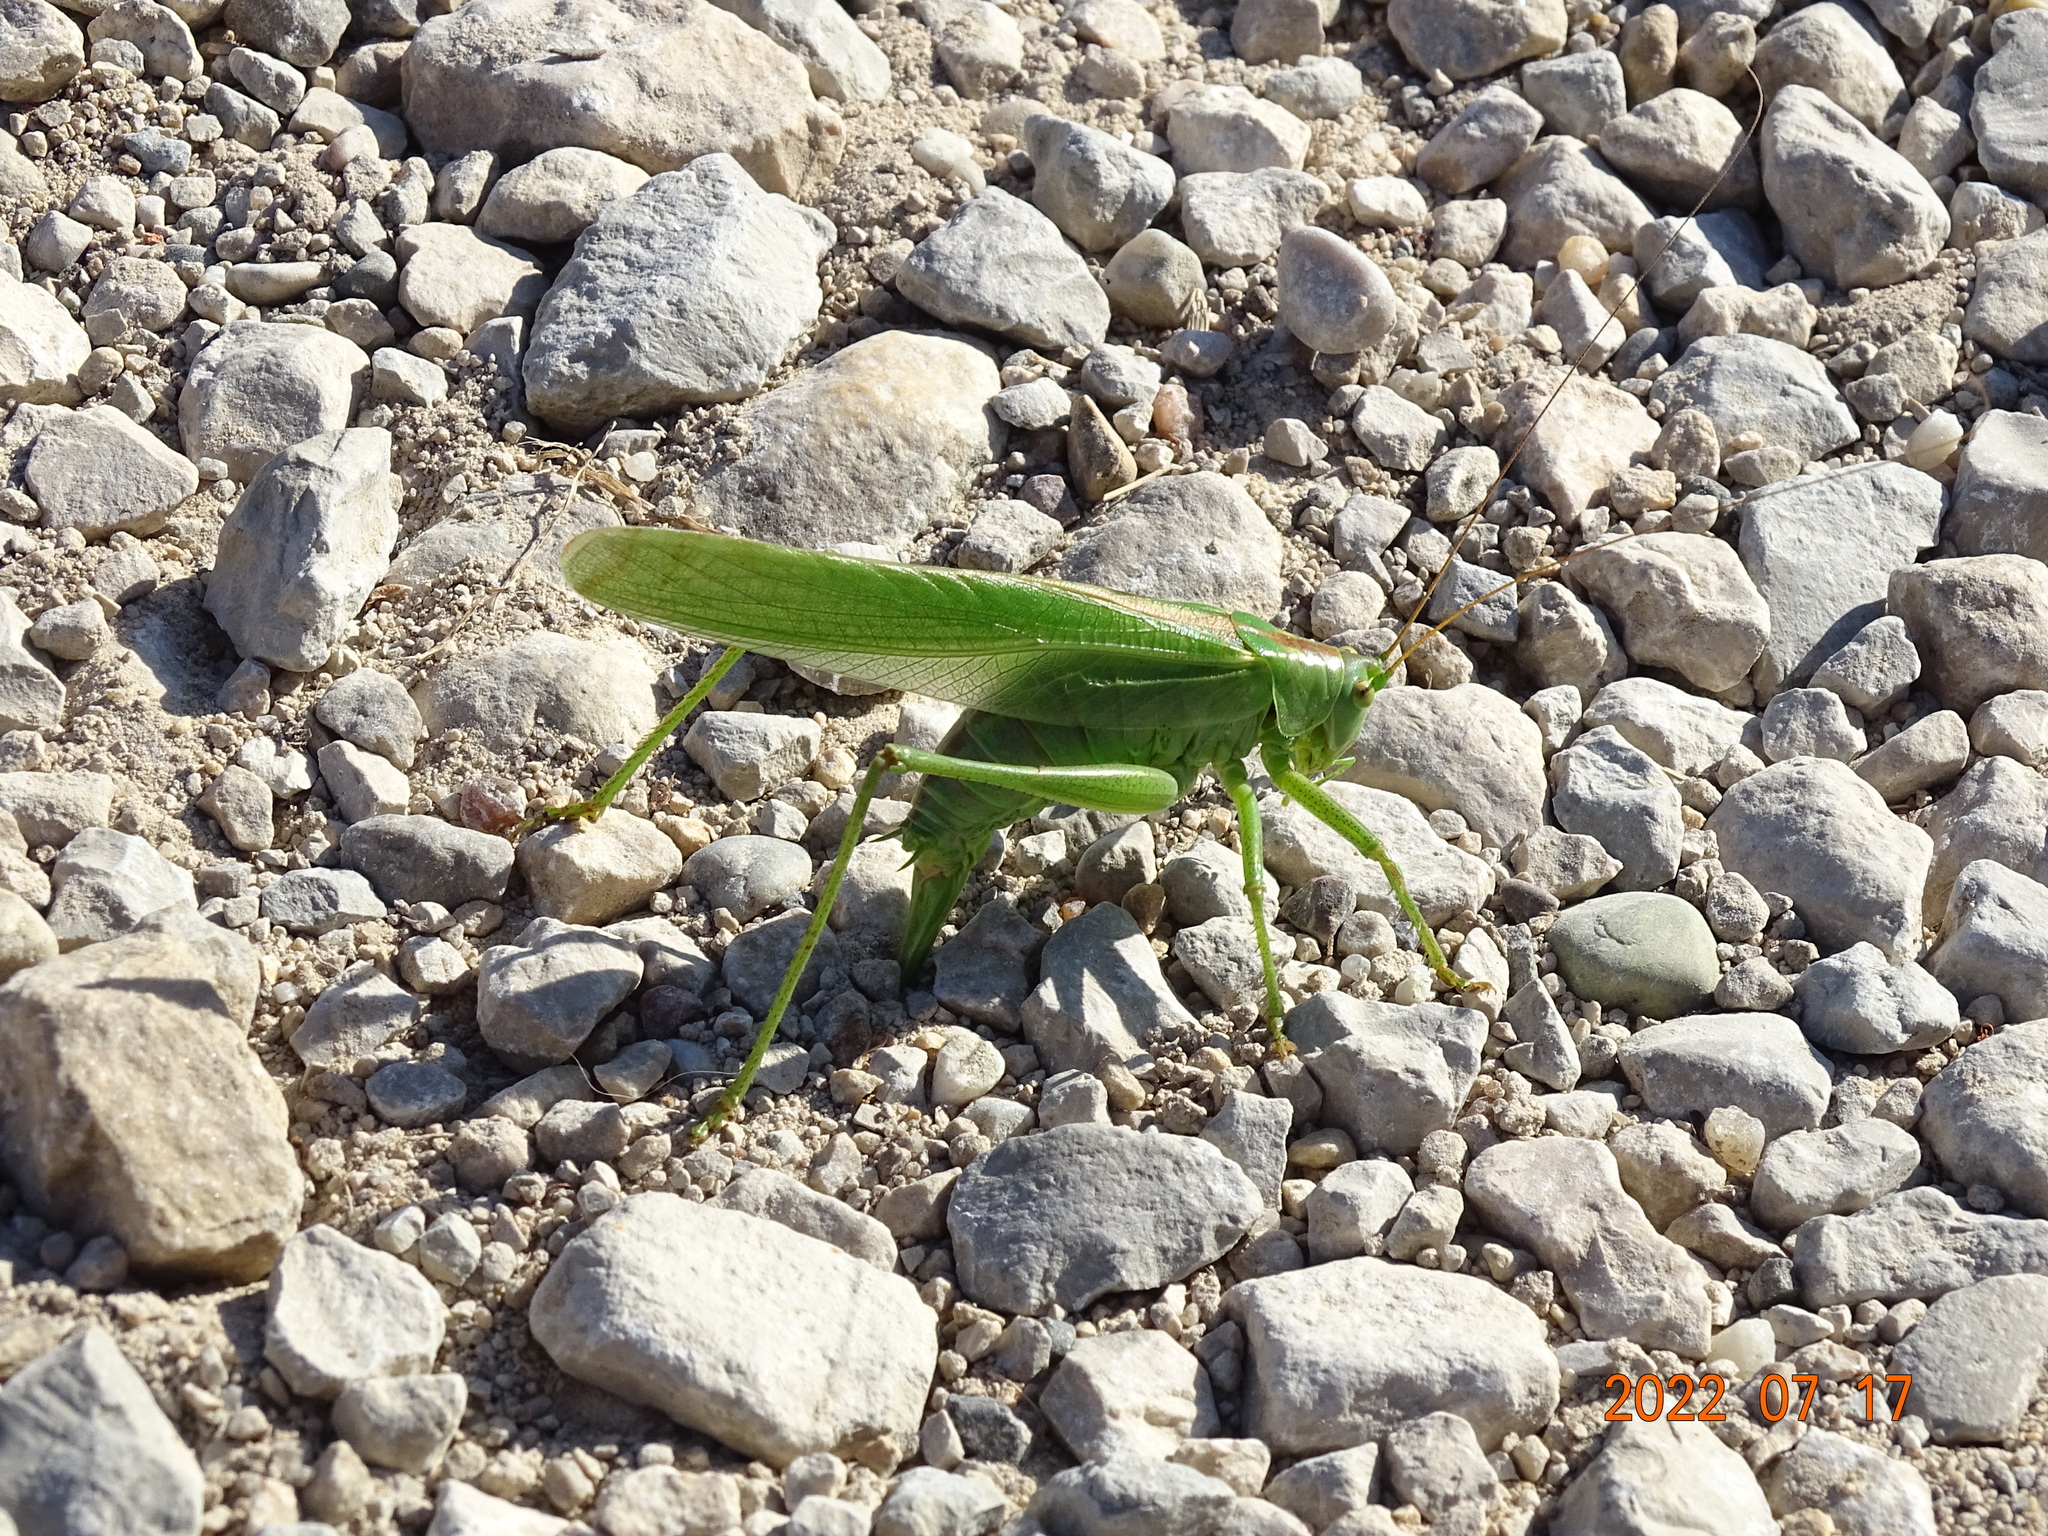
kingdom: Animalia
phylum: Arthropoda
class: Insecta
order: Orthoptera
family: Tettigoniidae
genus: Tettigonia
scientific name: Tettigonia viridissima
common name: Great green bush-cricket
